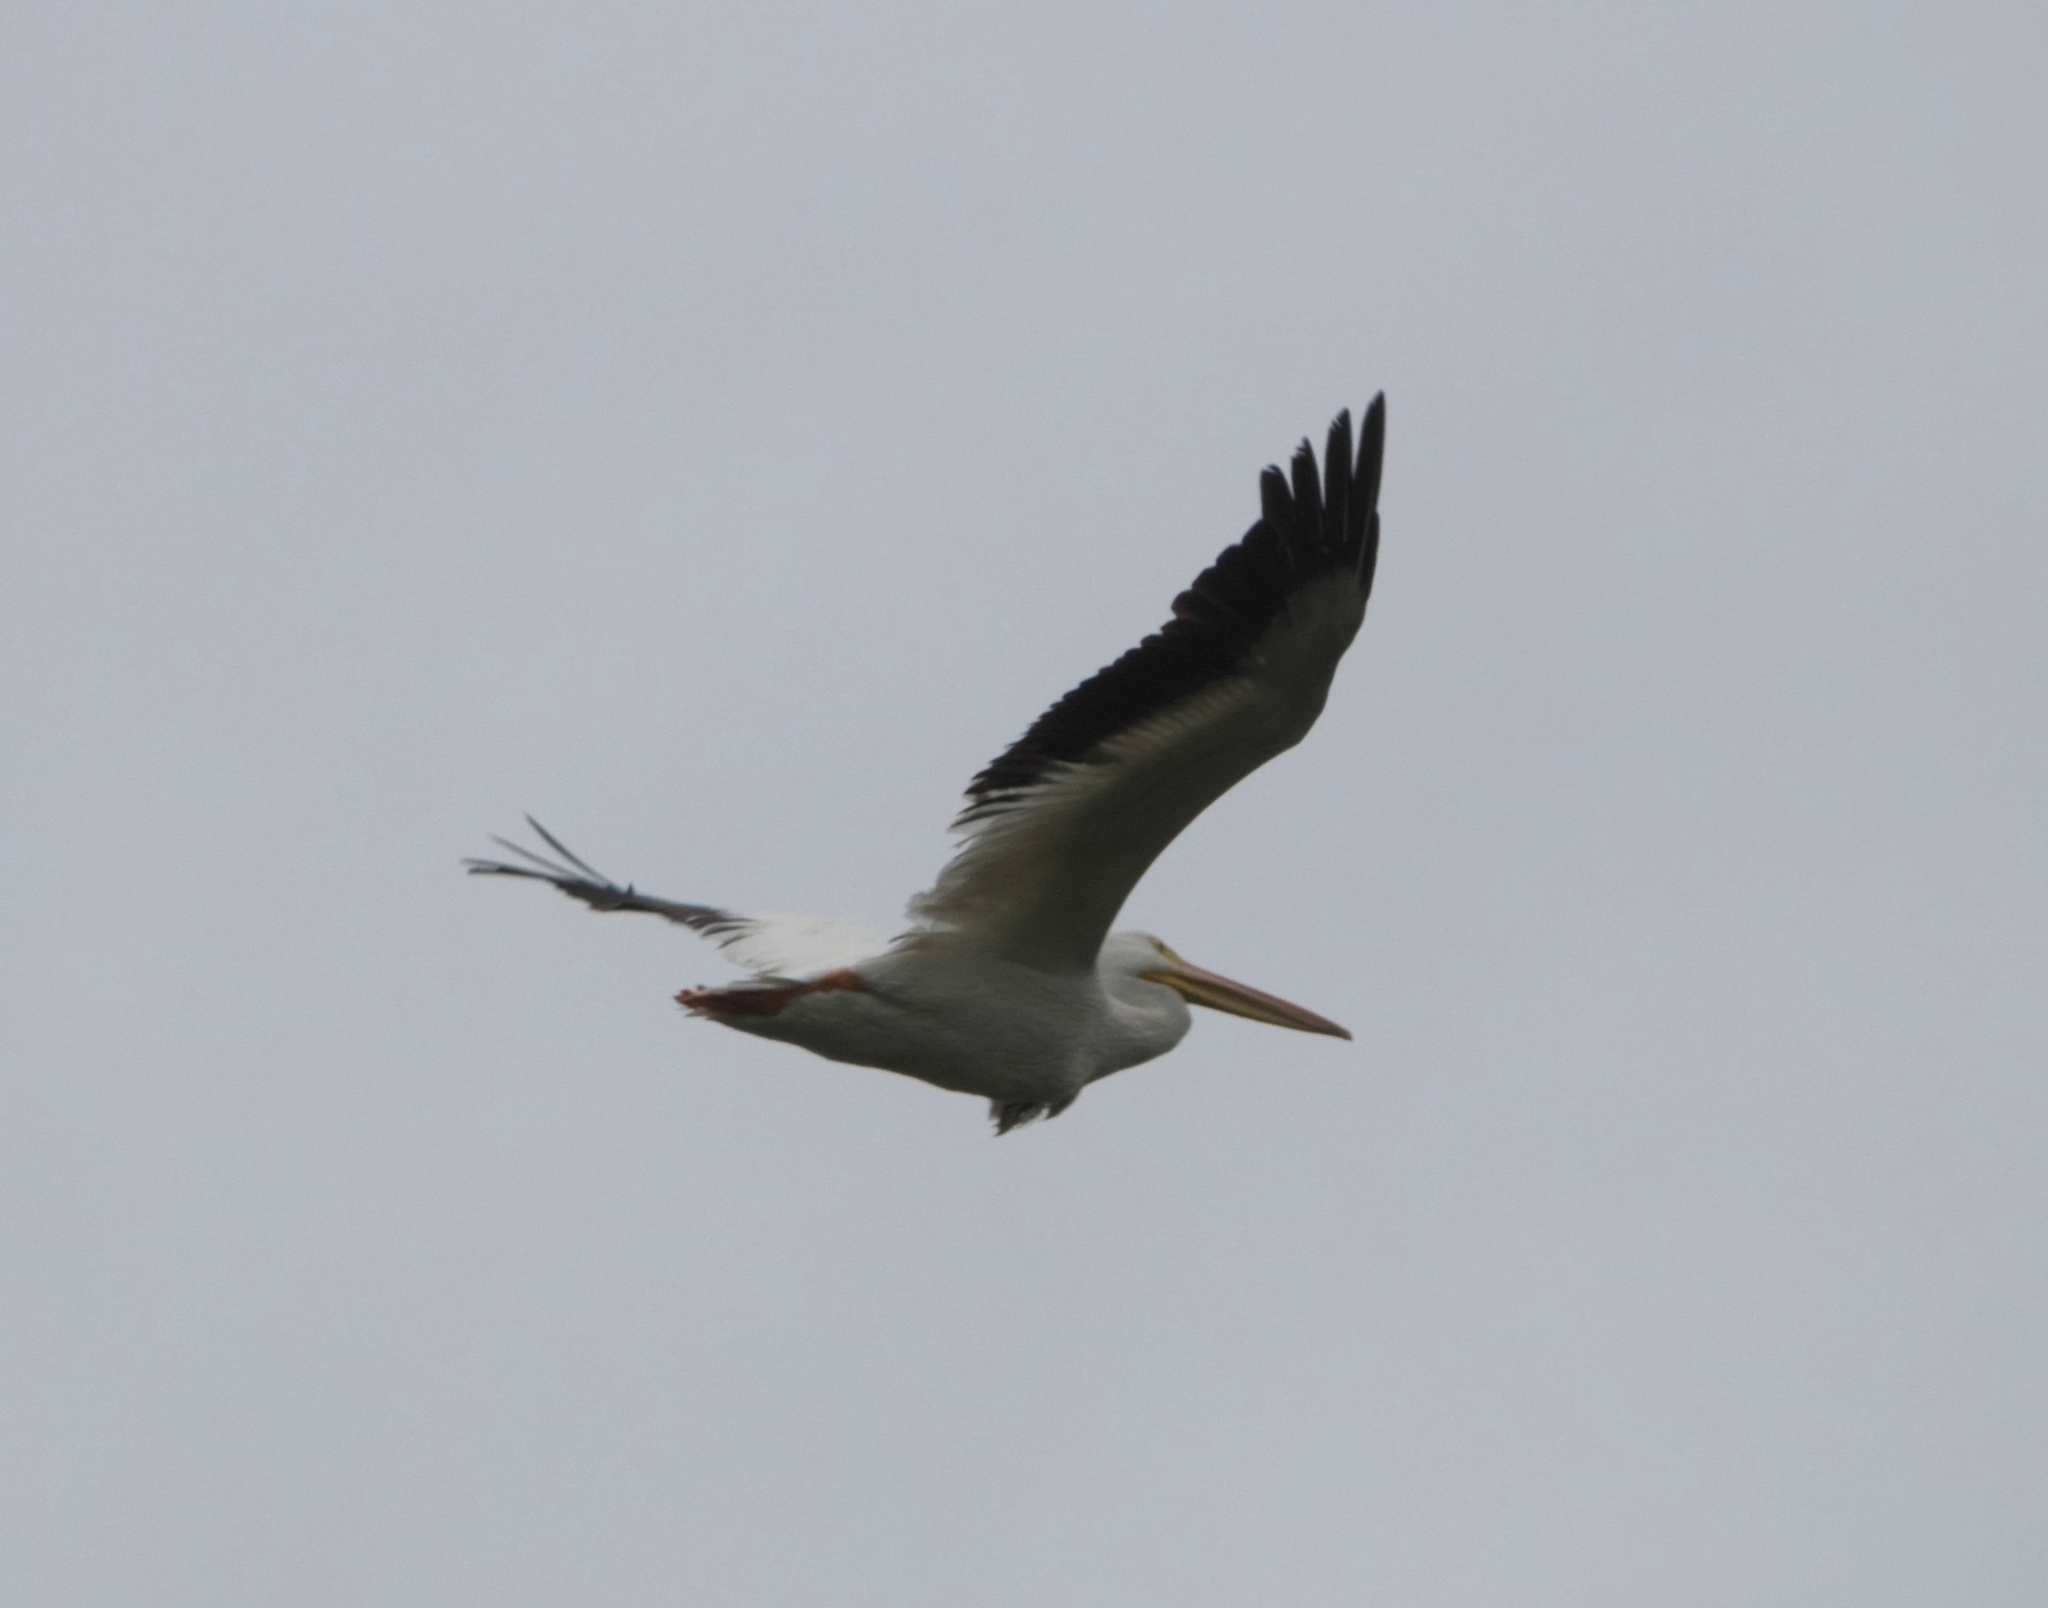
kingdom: Animalia
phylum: Chordata
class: Aves
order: Pelecaniformes
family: Pelecanidae
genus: Pelecanus
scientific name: Pelecanus erythrorhynchos
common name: American white pelican
